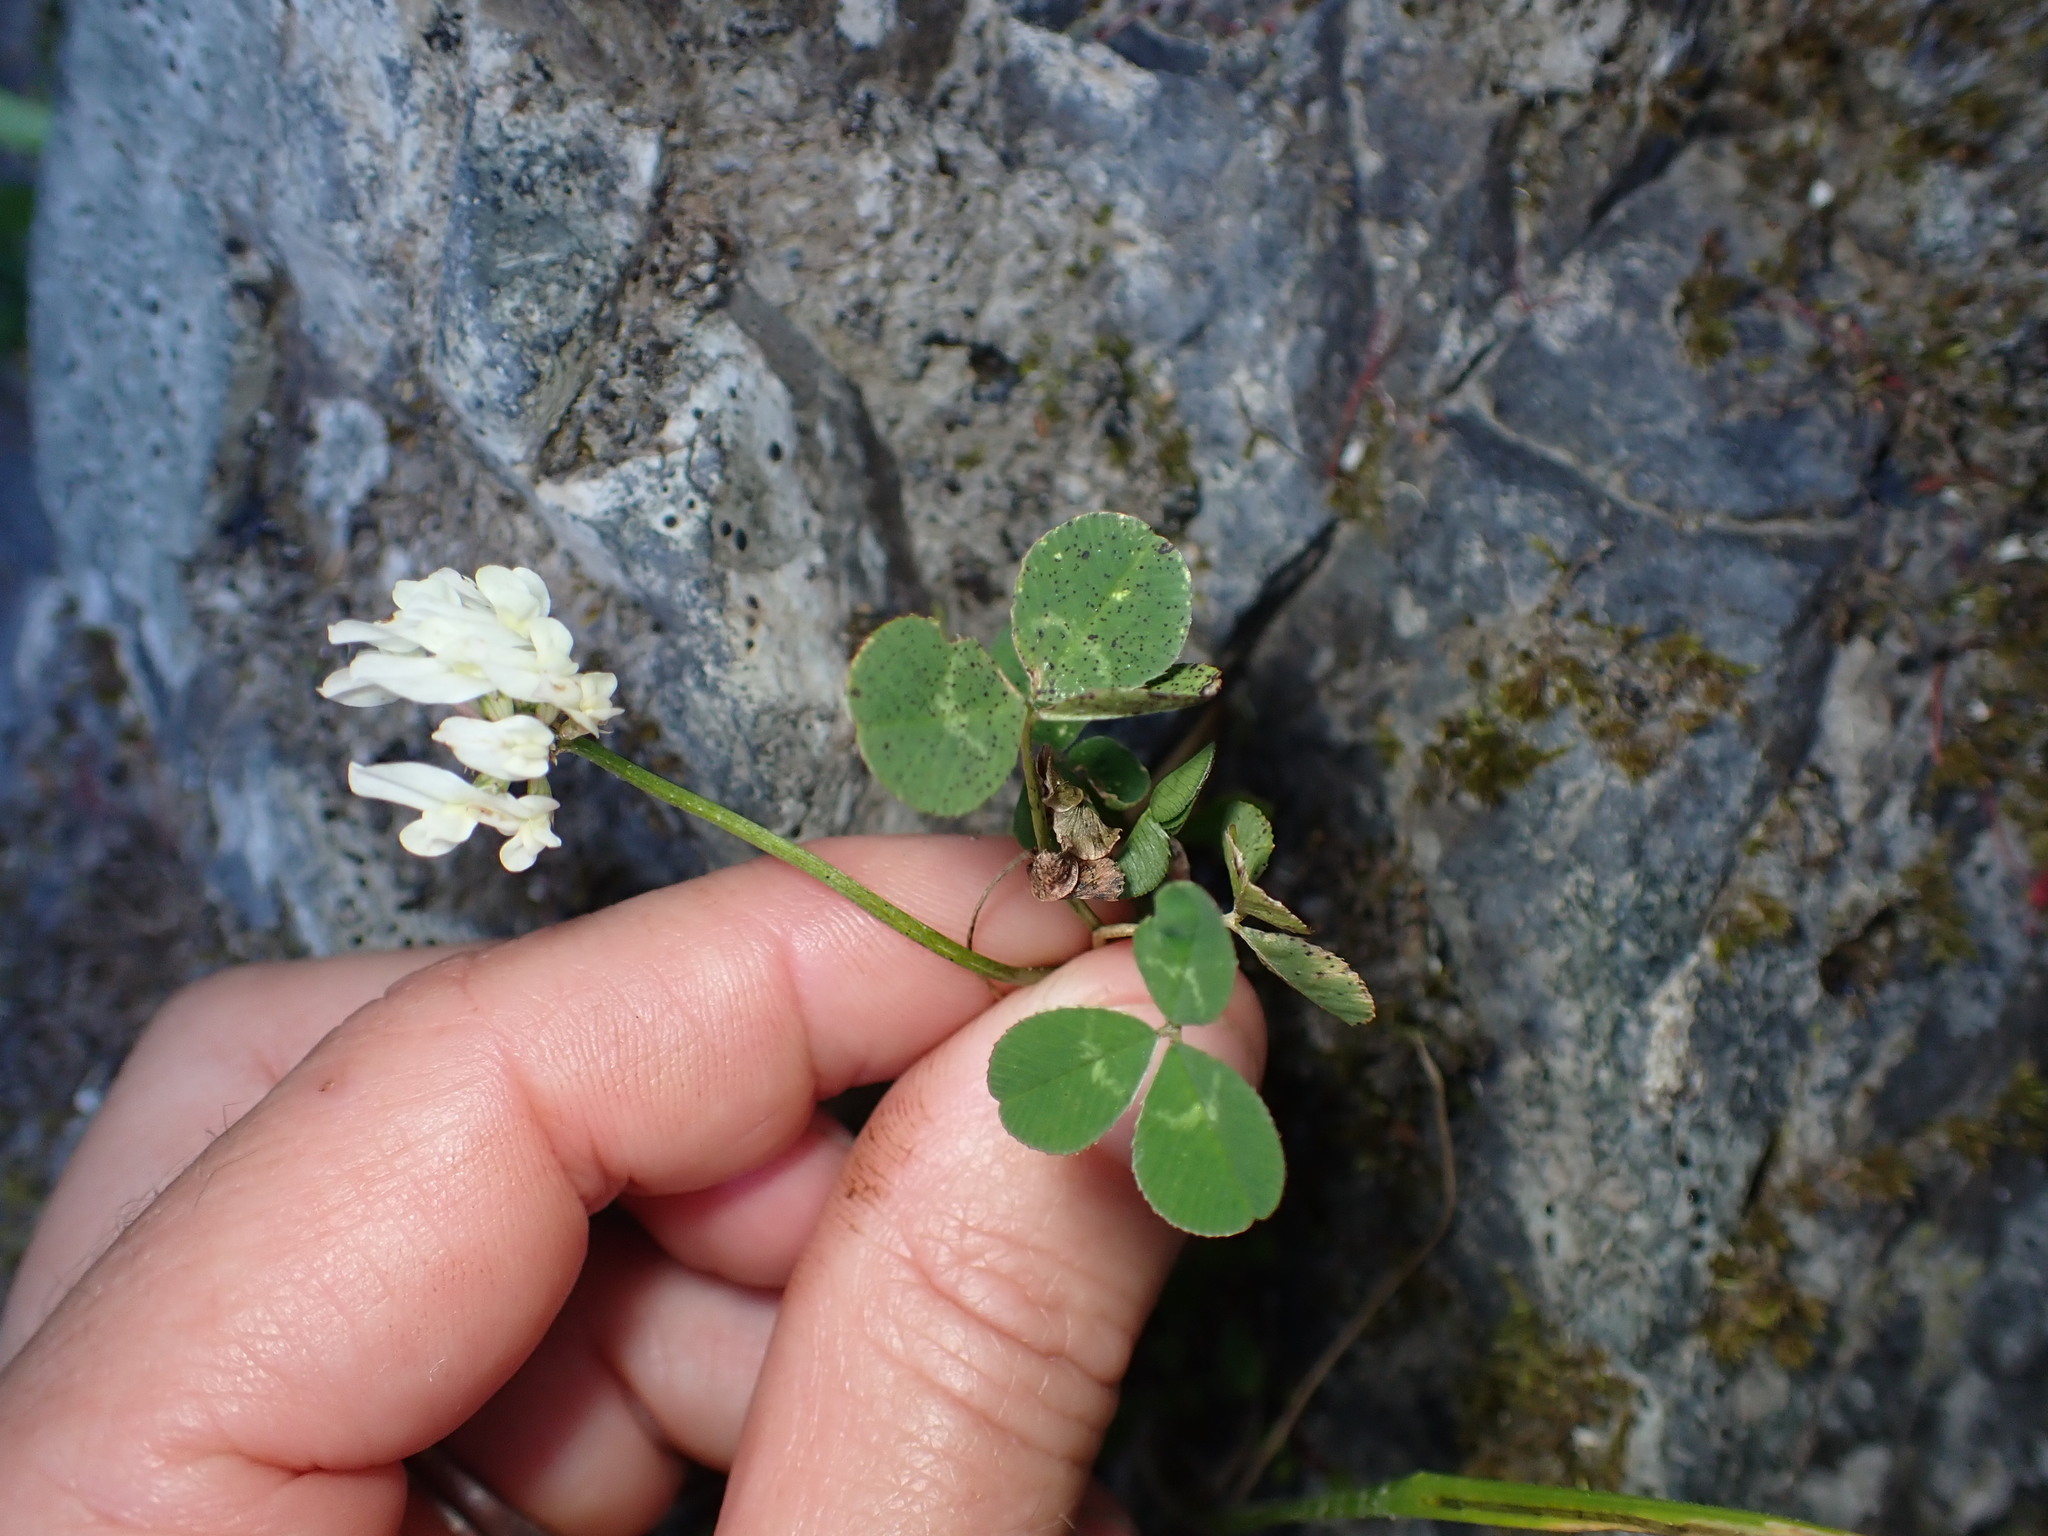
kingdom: Plantae
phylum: Tracheophyta
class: Magnoliopsida
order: Fabales
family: Fabaceae
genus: Trifolium
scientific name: Trifolium repens
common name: White clover
